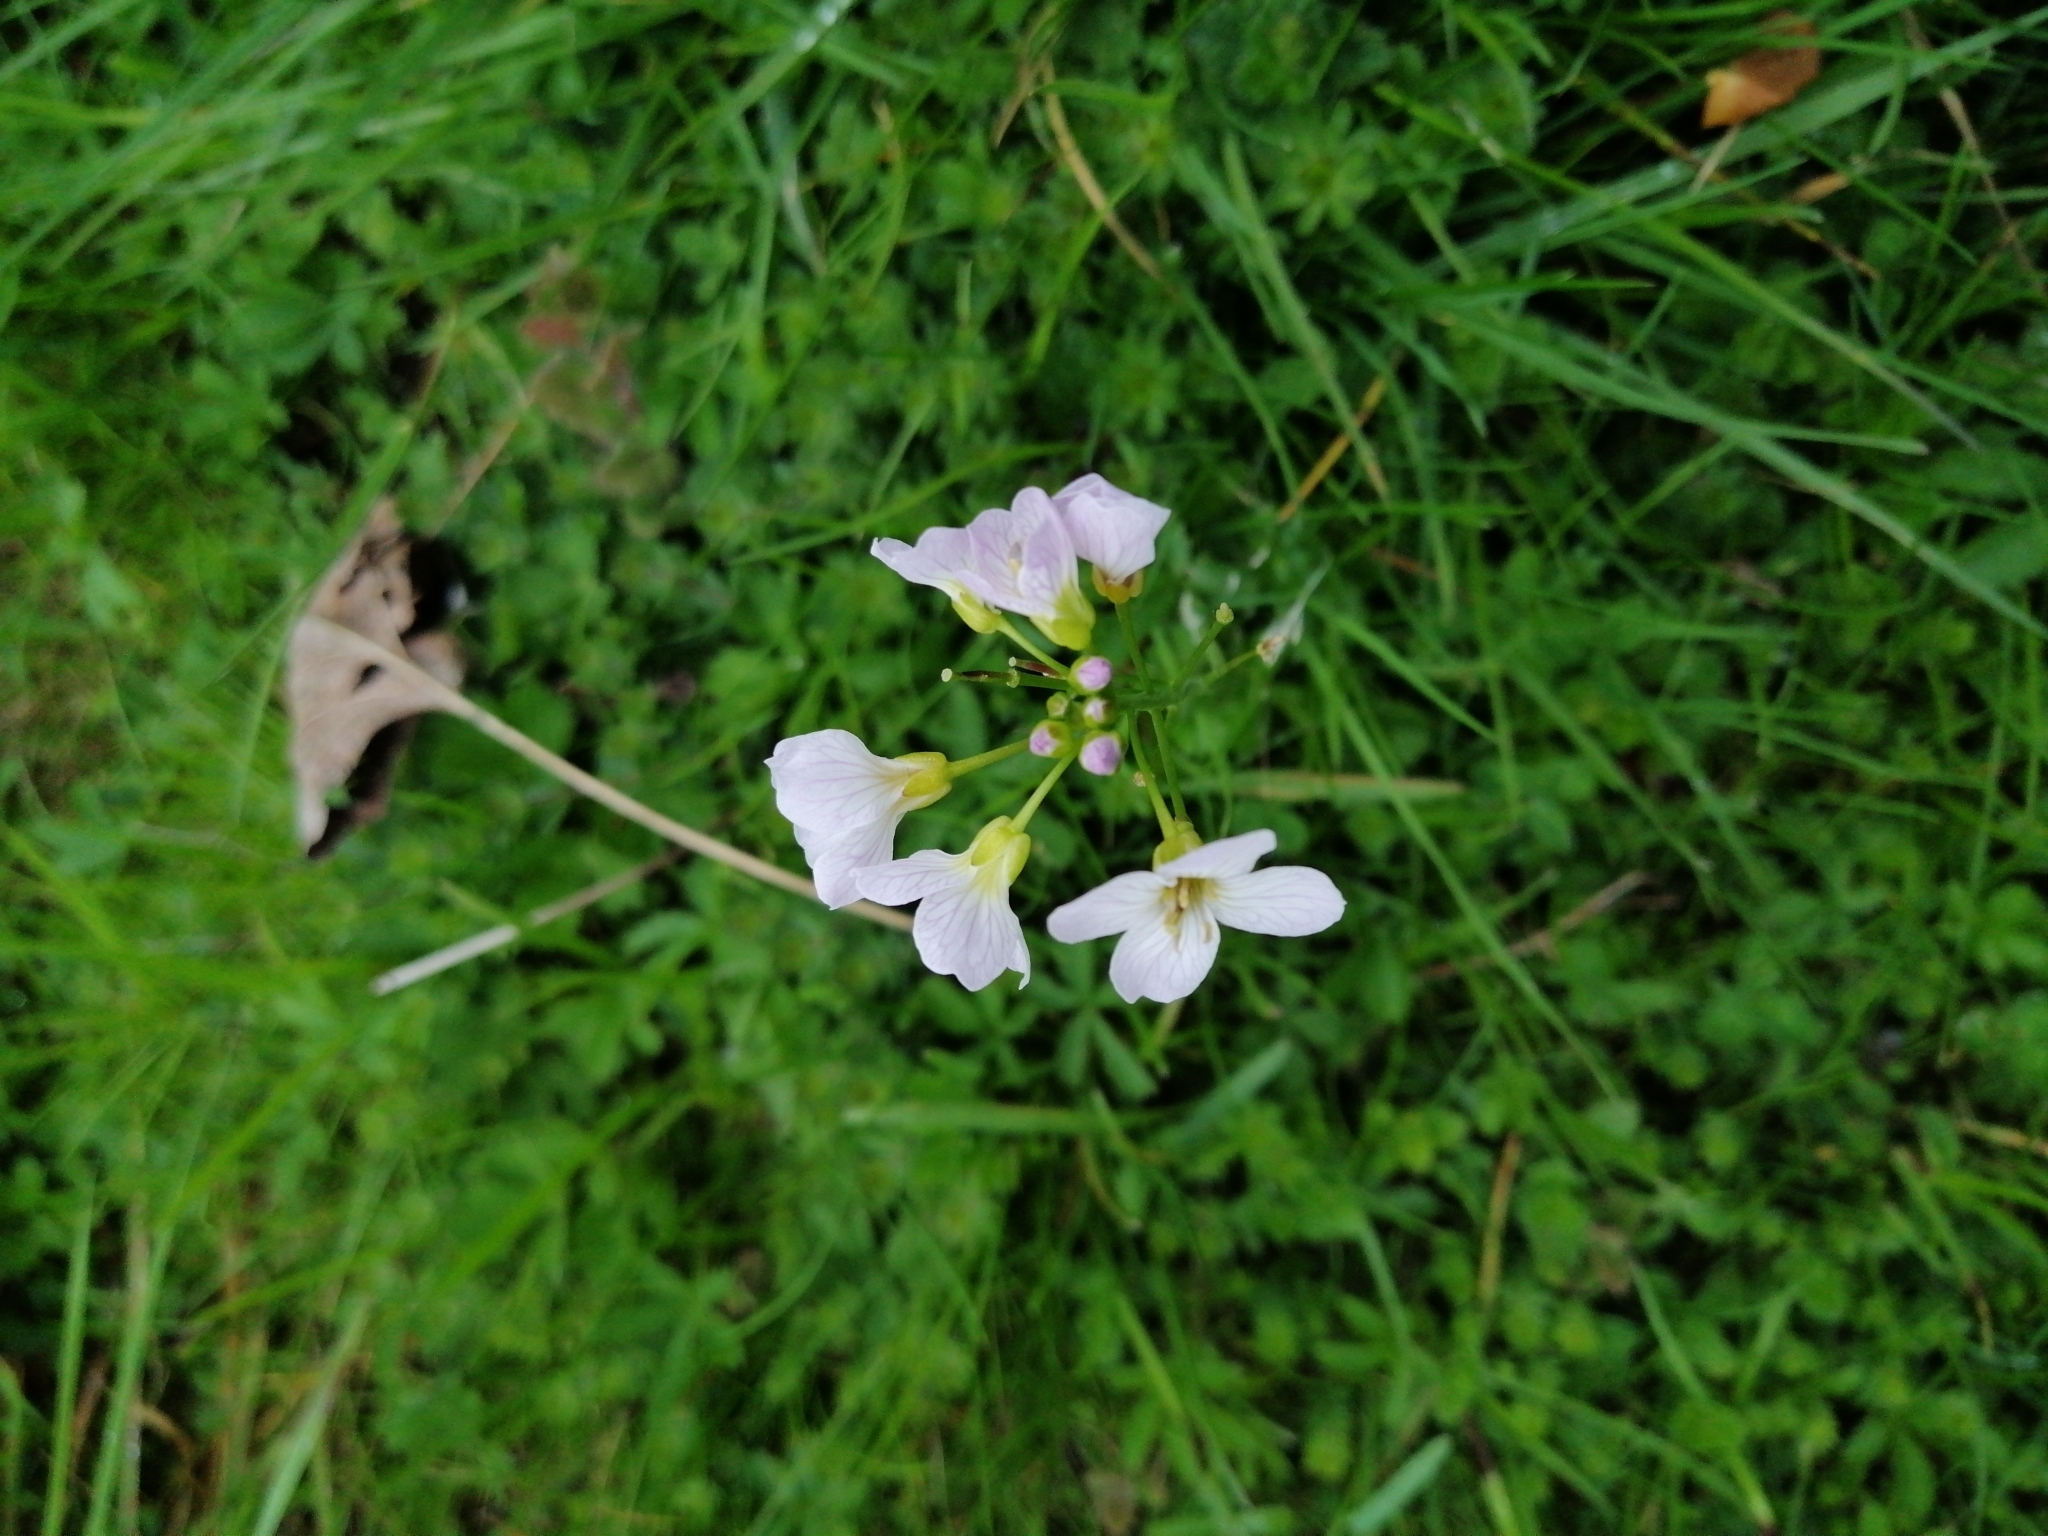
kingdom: Plantae
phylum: Tracheophyta
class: Magnoliopsida
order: Brassicales
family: Brassicaceae
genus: Cardamine
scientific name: Cardamine pratensis
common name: Cuckoo flower
